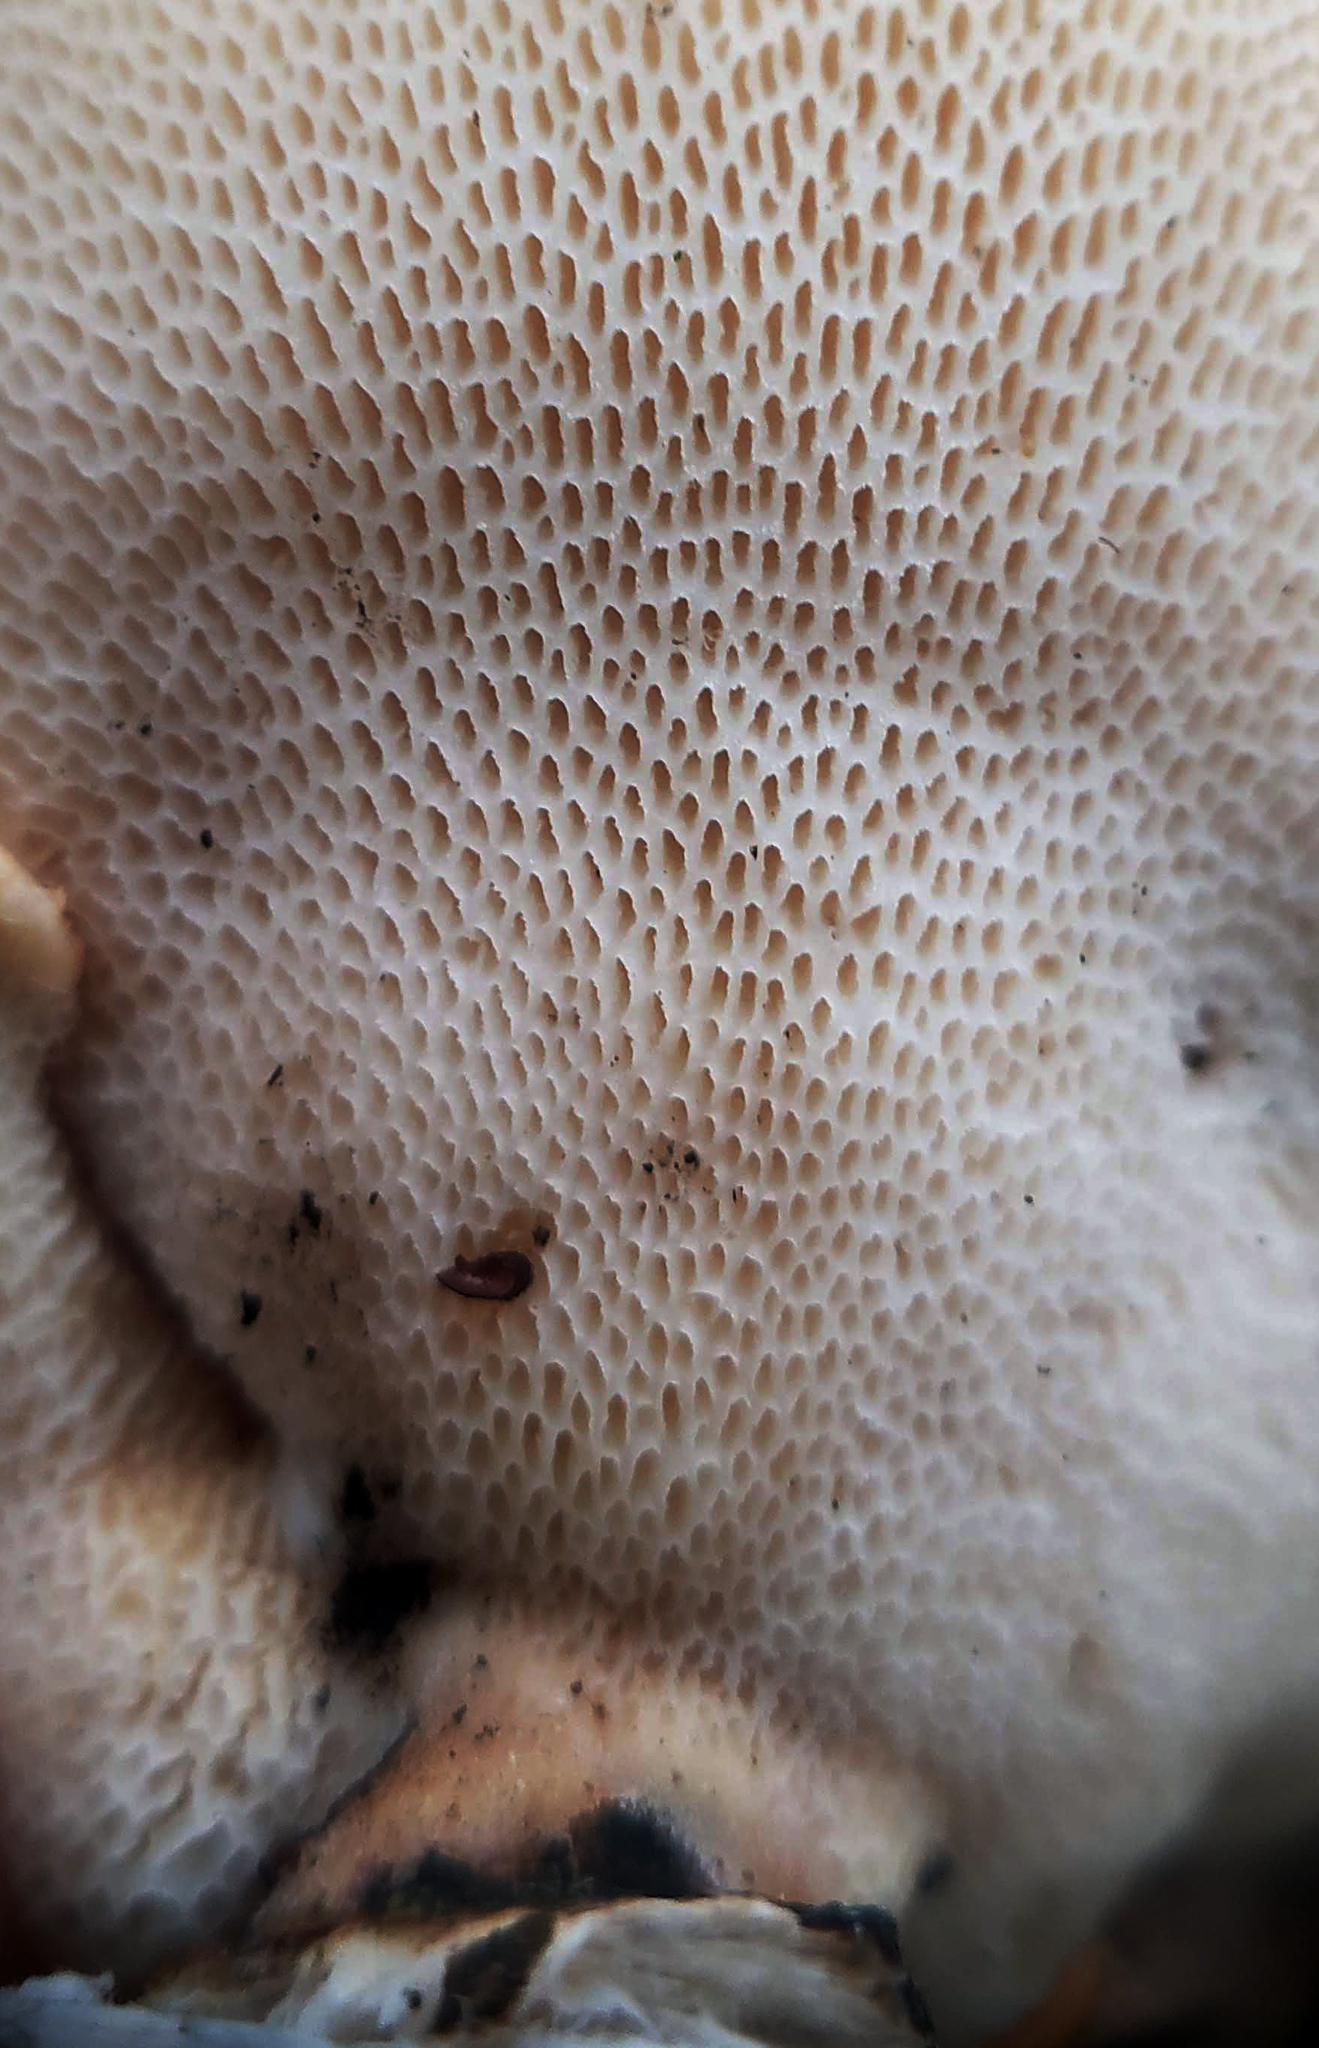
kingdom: Fungi
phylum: Basidiomycota
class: Agaricomycetes
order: Polyporales
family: Polyporaceae
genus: Neofavolus
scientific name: Neofavolus alveolaris
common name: Hexagonal-pored polypore
